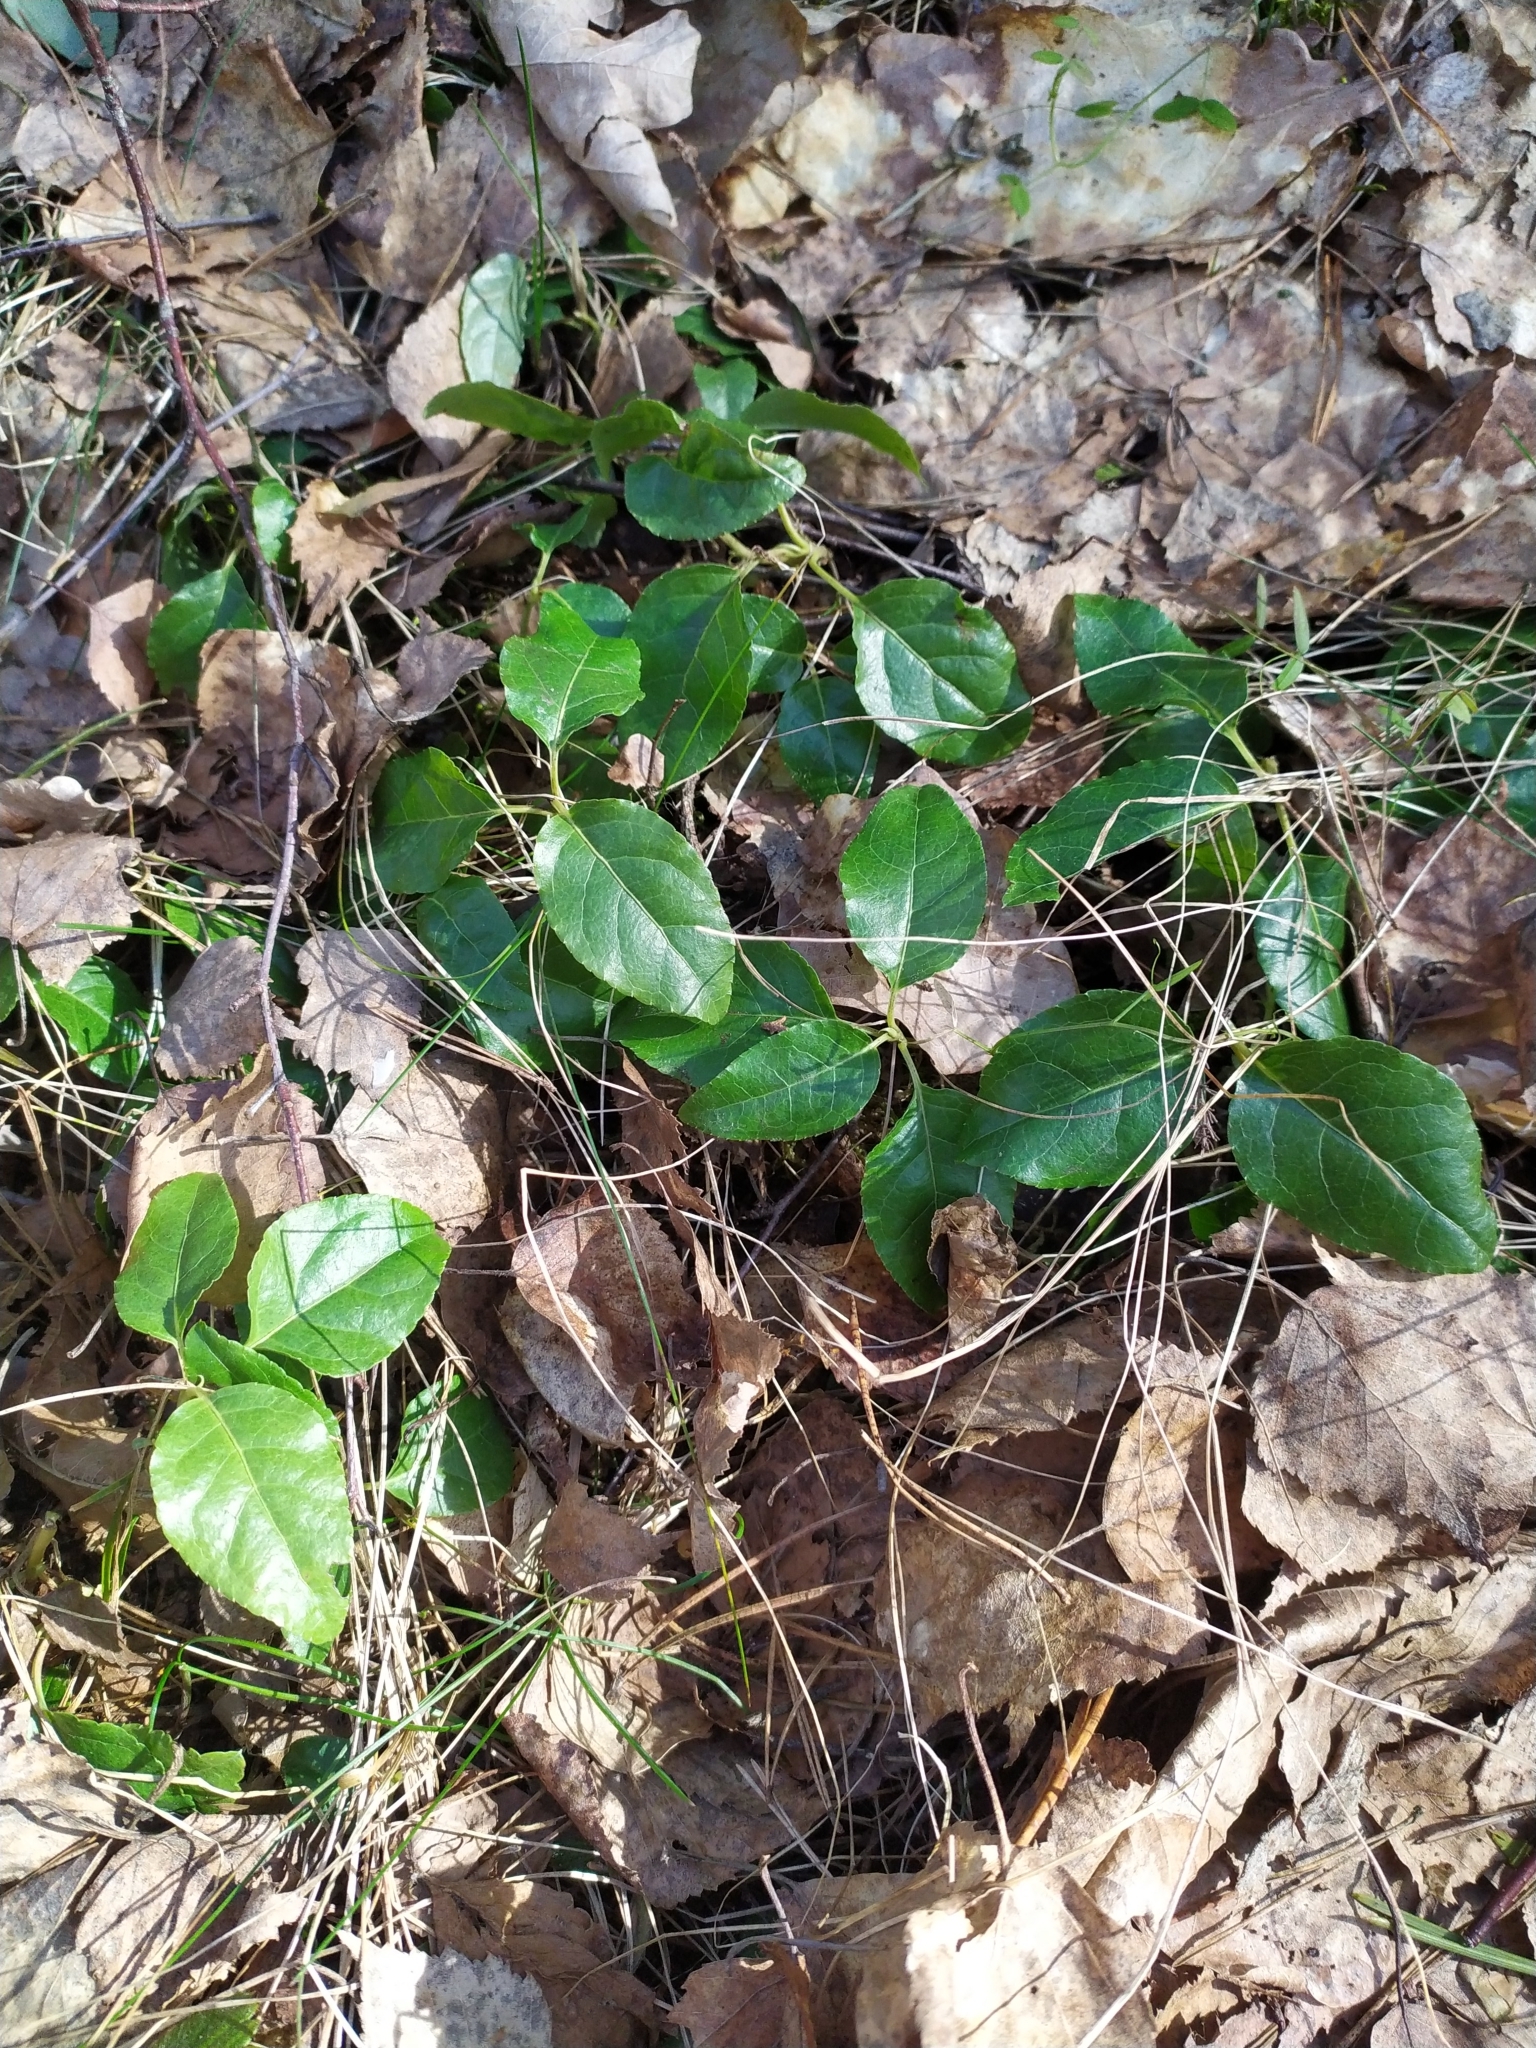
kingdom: Plantae
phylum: Tracheophyta
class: Magnoliopsida
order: Ericales
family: Ericaceae
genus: Orthilia
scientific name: Orthilia secunda
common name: One-sided orthilia
